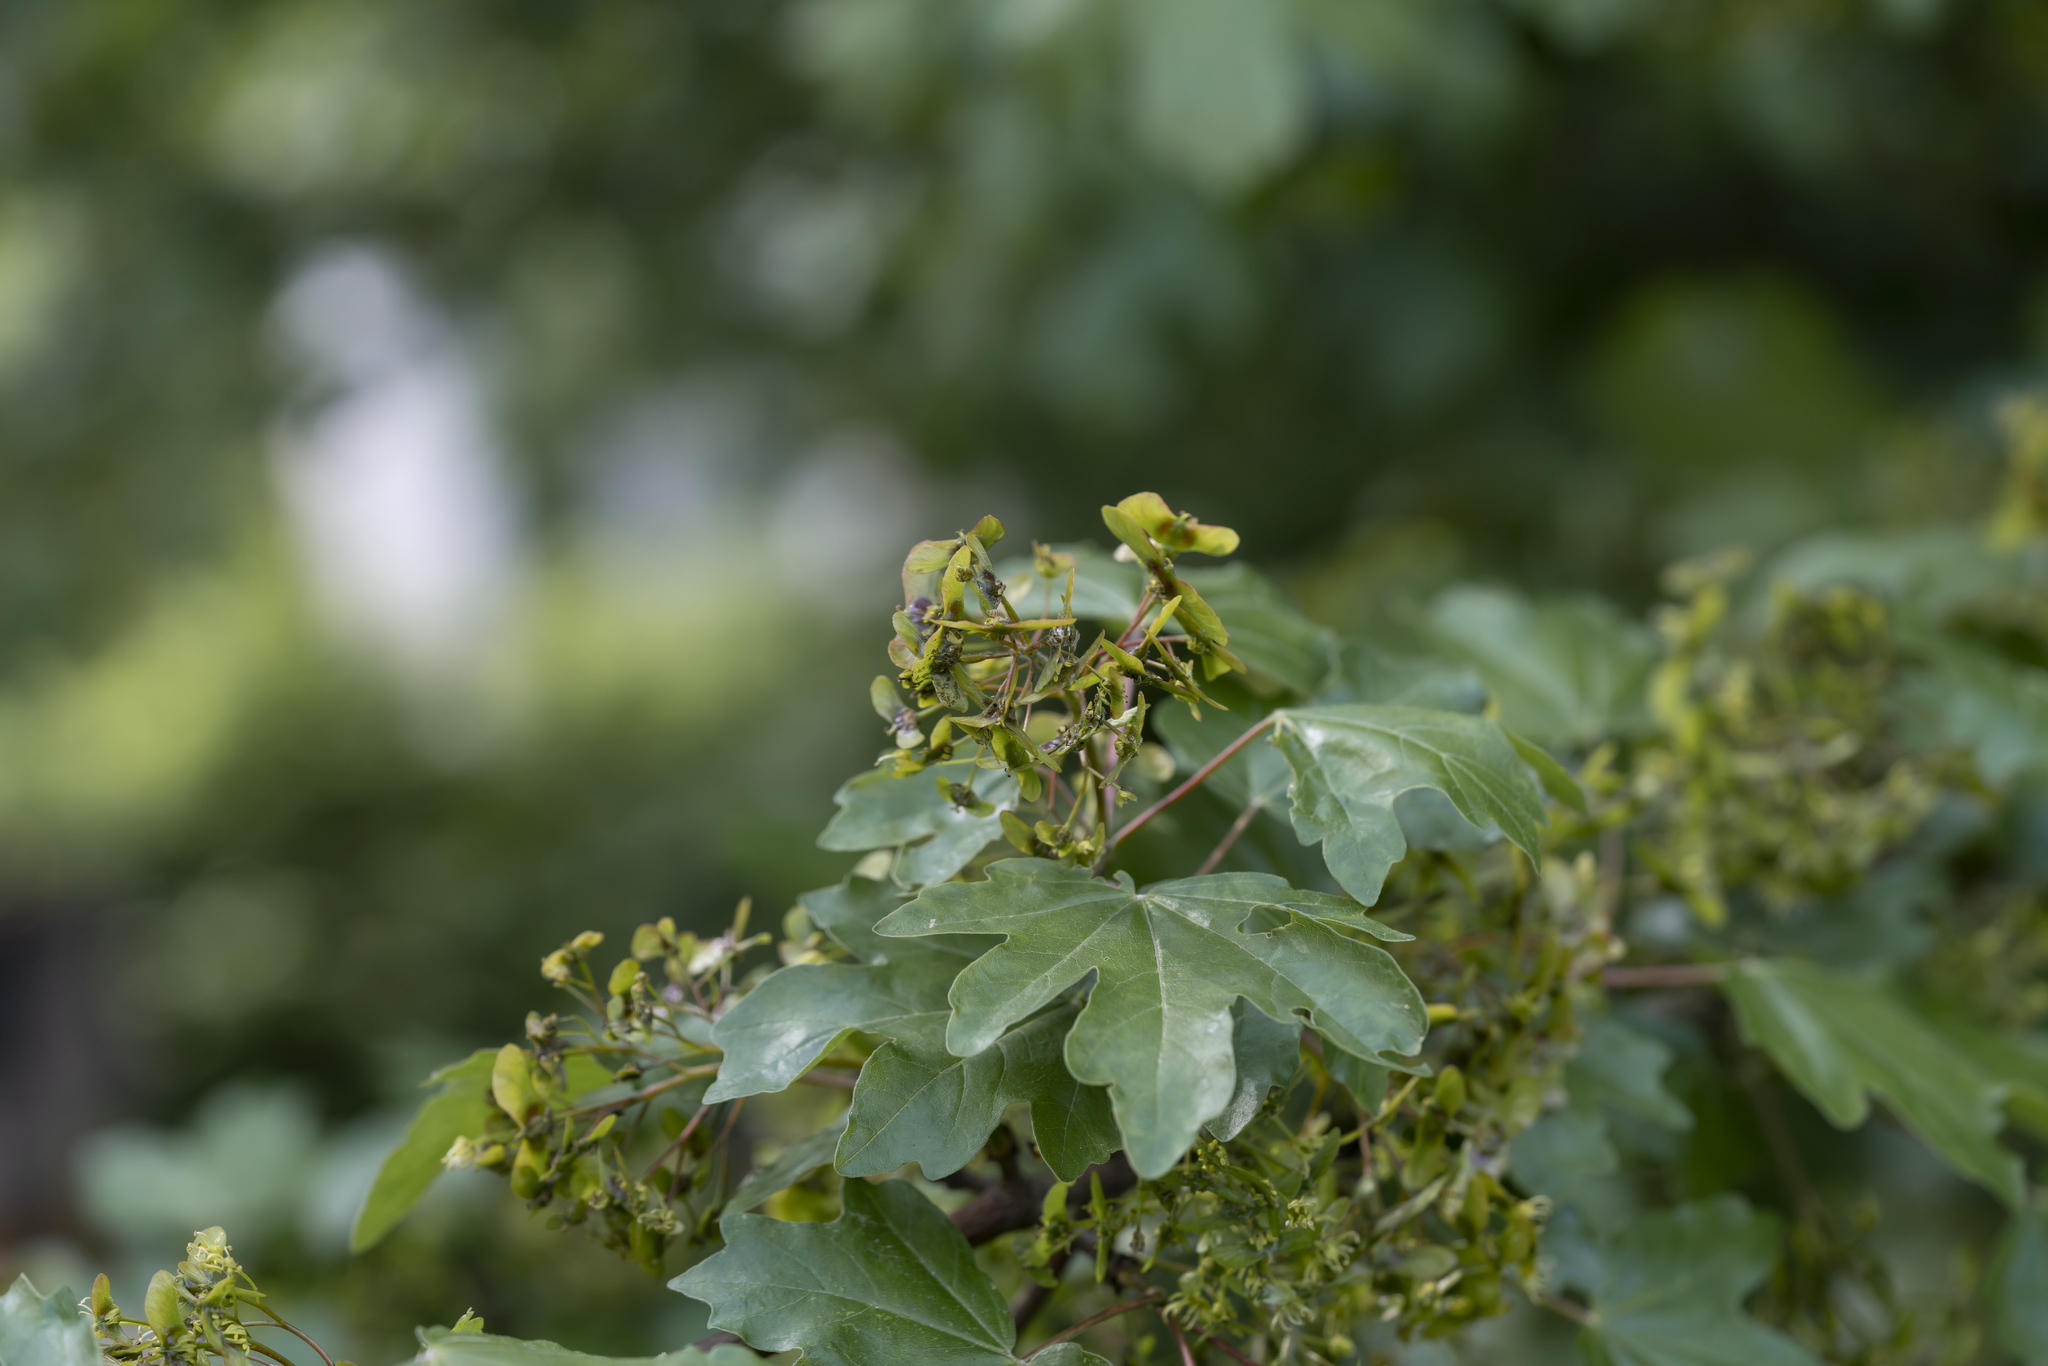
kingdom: Plantae
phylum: Tracheophyta
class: Magnoliopsida
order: Sapindales
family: Sapindaceae
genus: Acer
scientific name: Acer campestre
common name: Field maple
